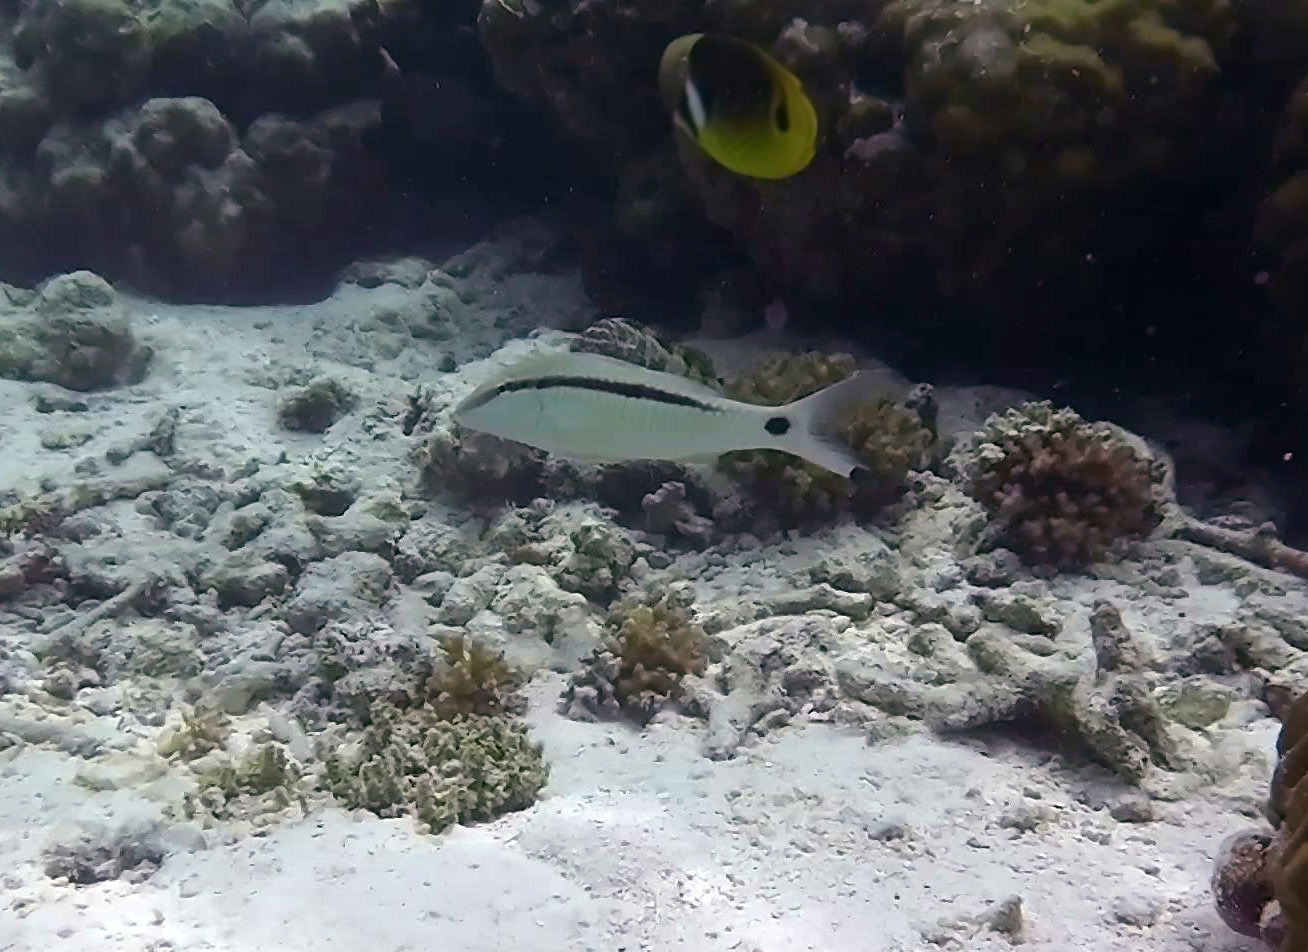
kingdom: Animalia
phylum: Chordata
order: Perciformes
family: Mullidae
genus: Parupeneus
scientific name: Parupeneus barberinus
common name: Dash-and-dot goatfish
